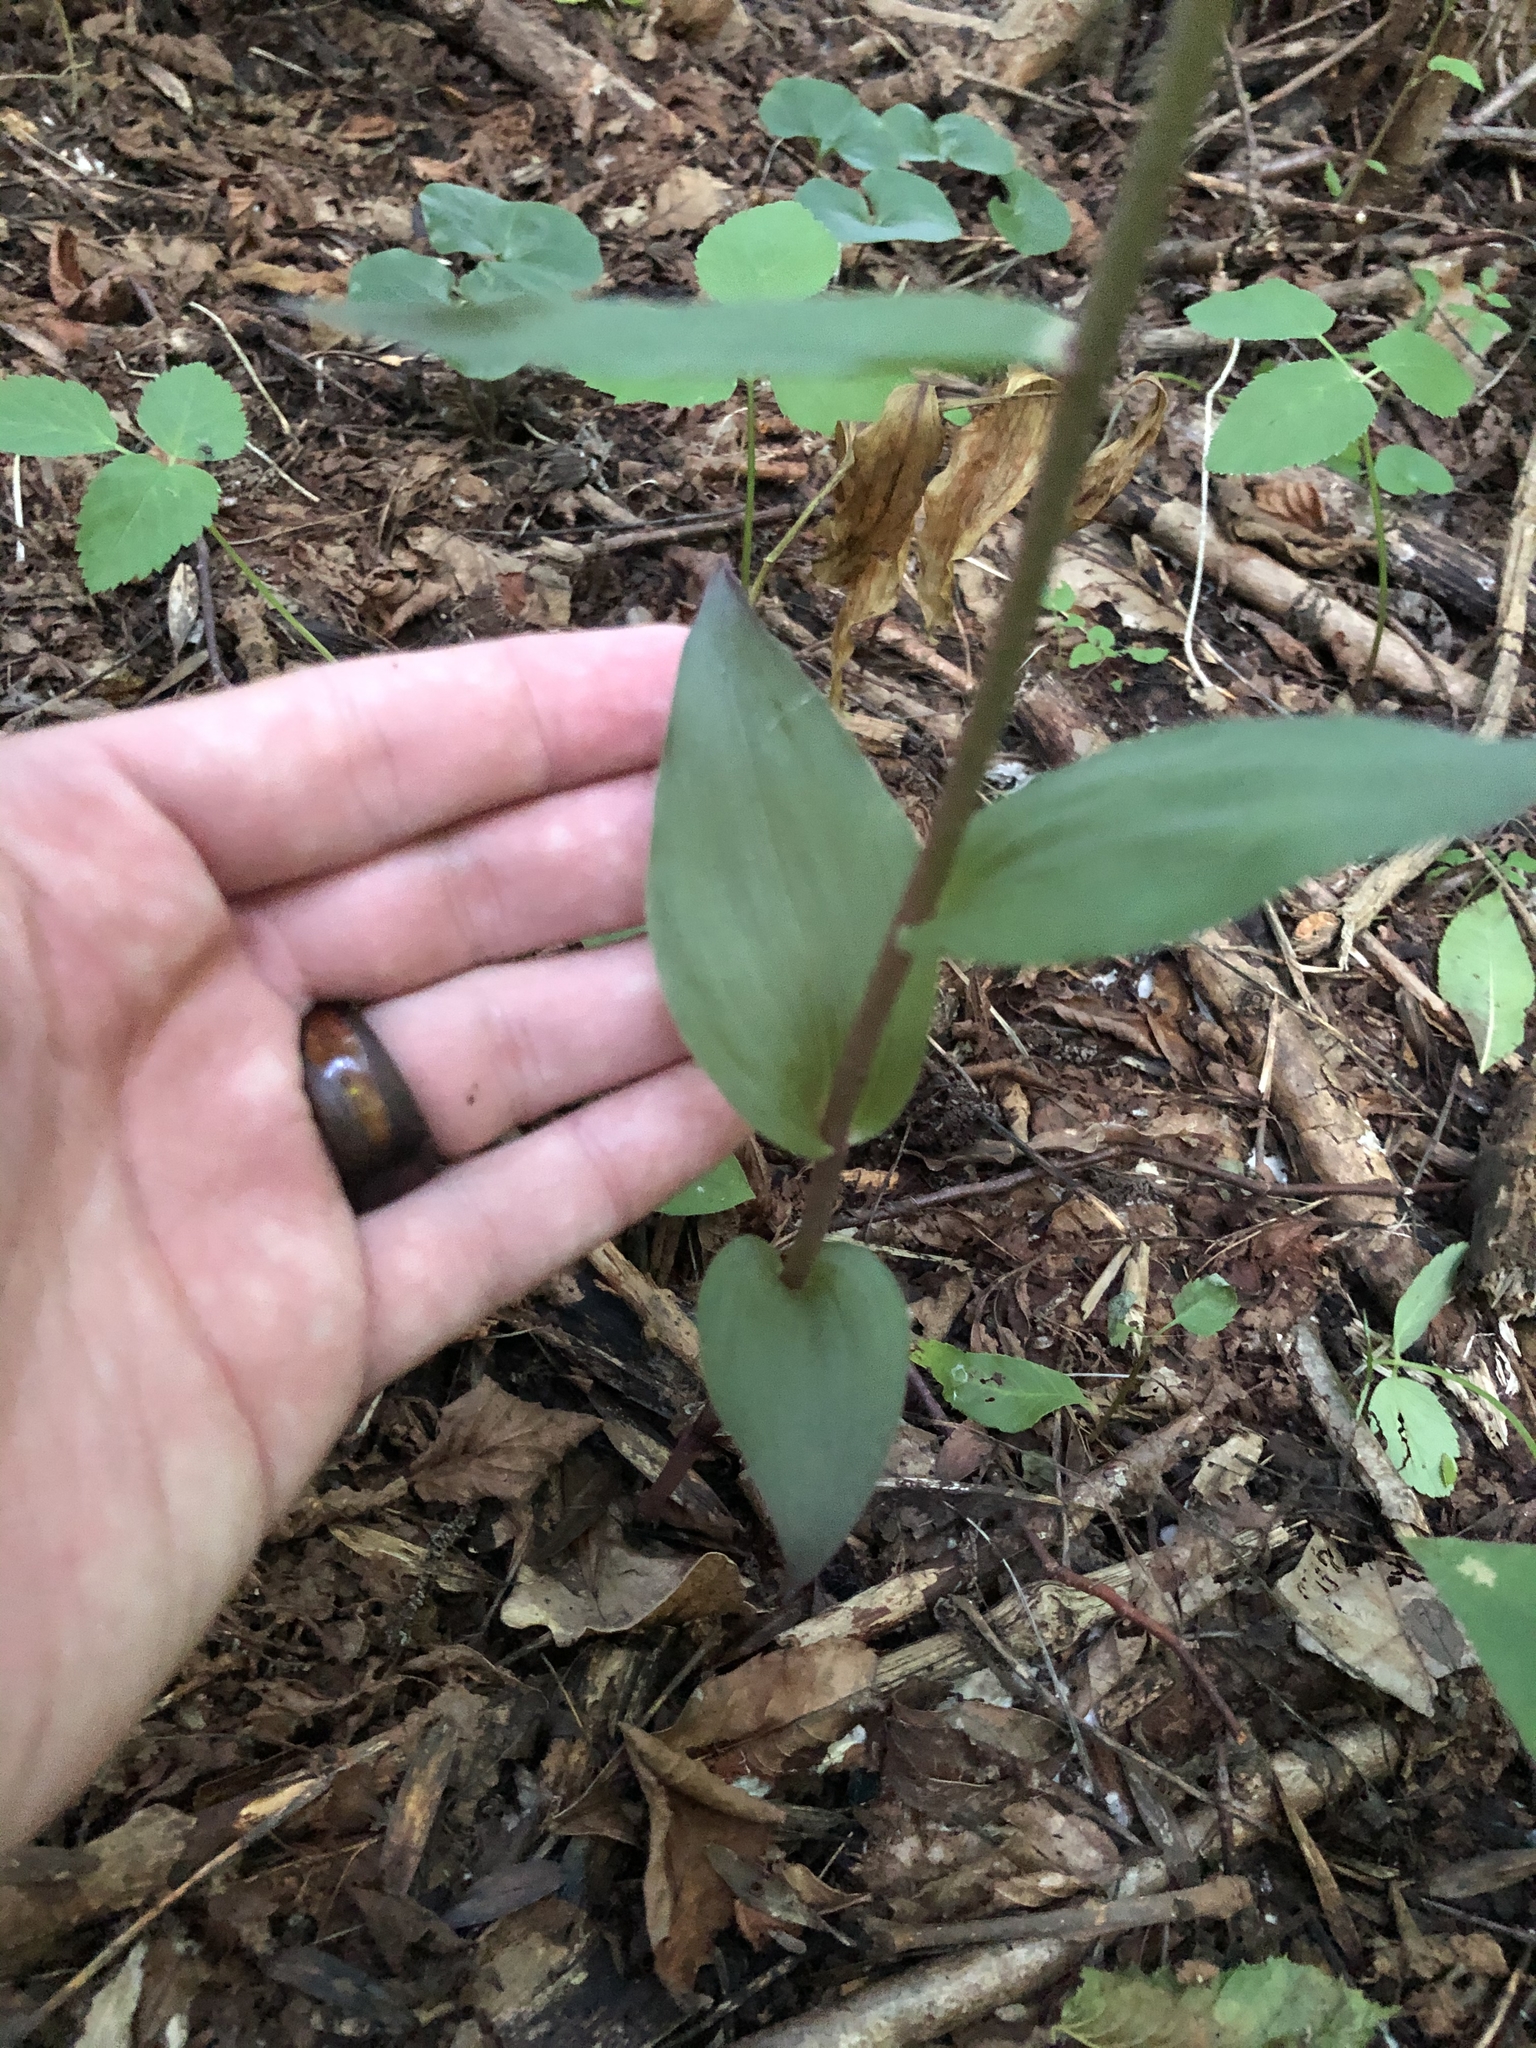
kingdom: Plantae
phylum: Tracheophyta
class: Liliopsida
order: Asparagales
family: Orchidaceae
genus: Epipactis
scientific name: Epipactis purpurata
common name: Violet helleborine
